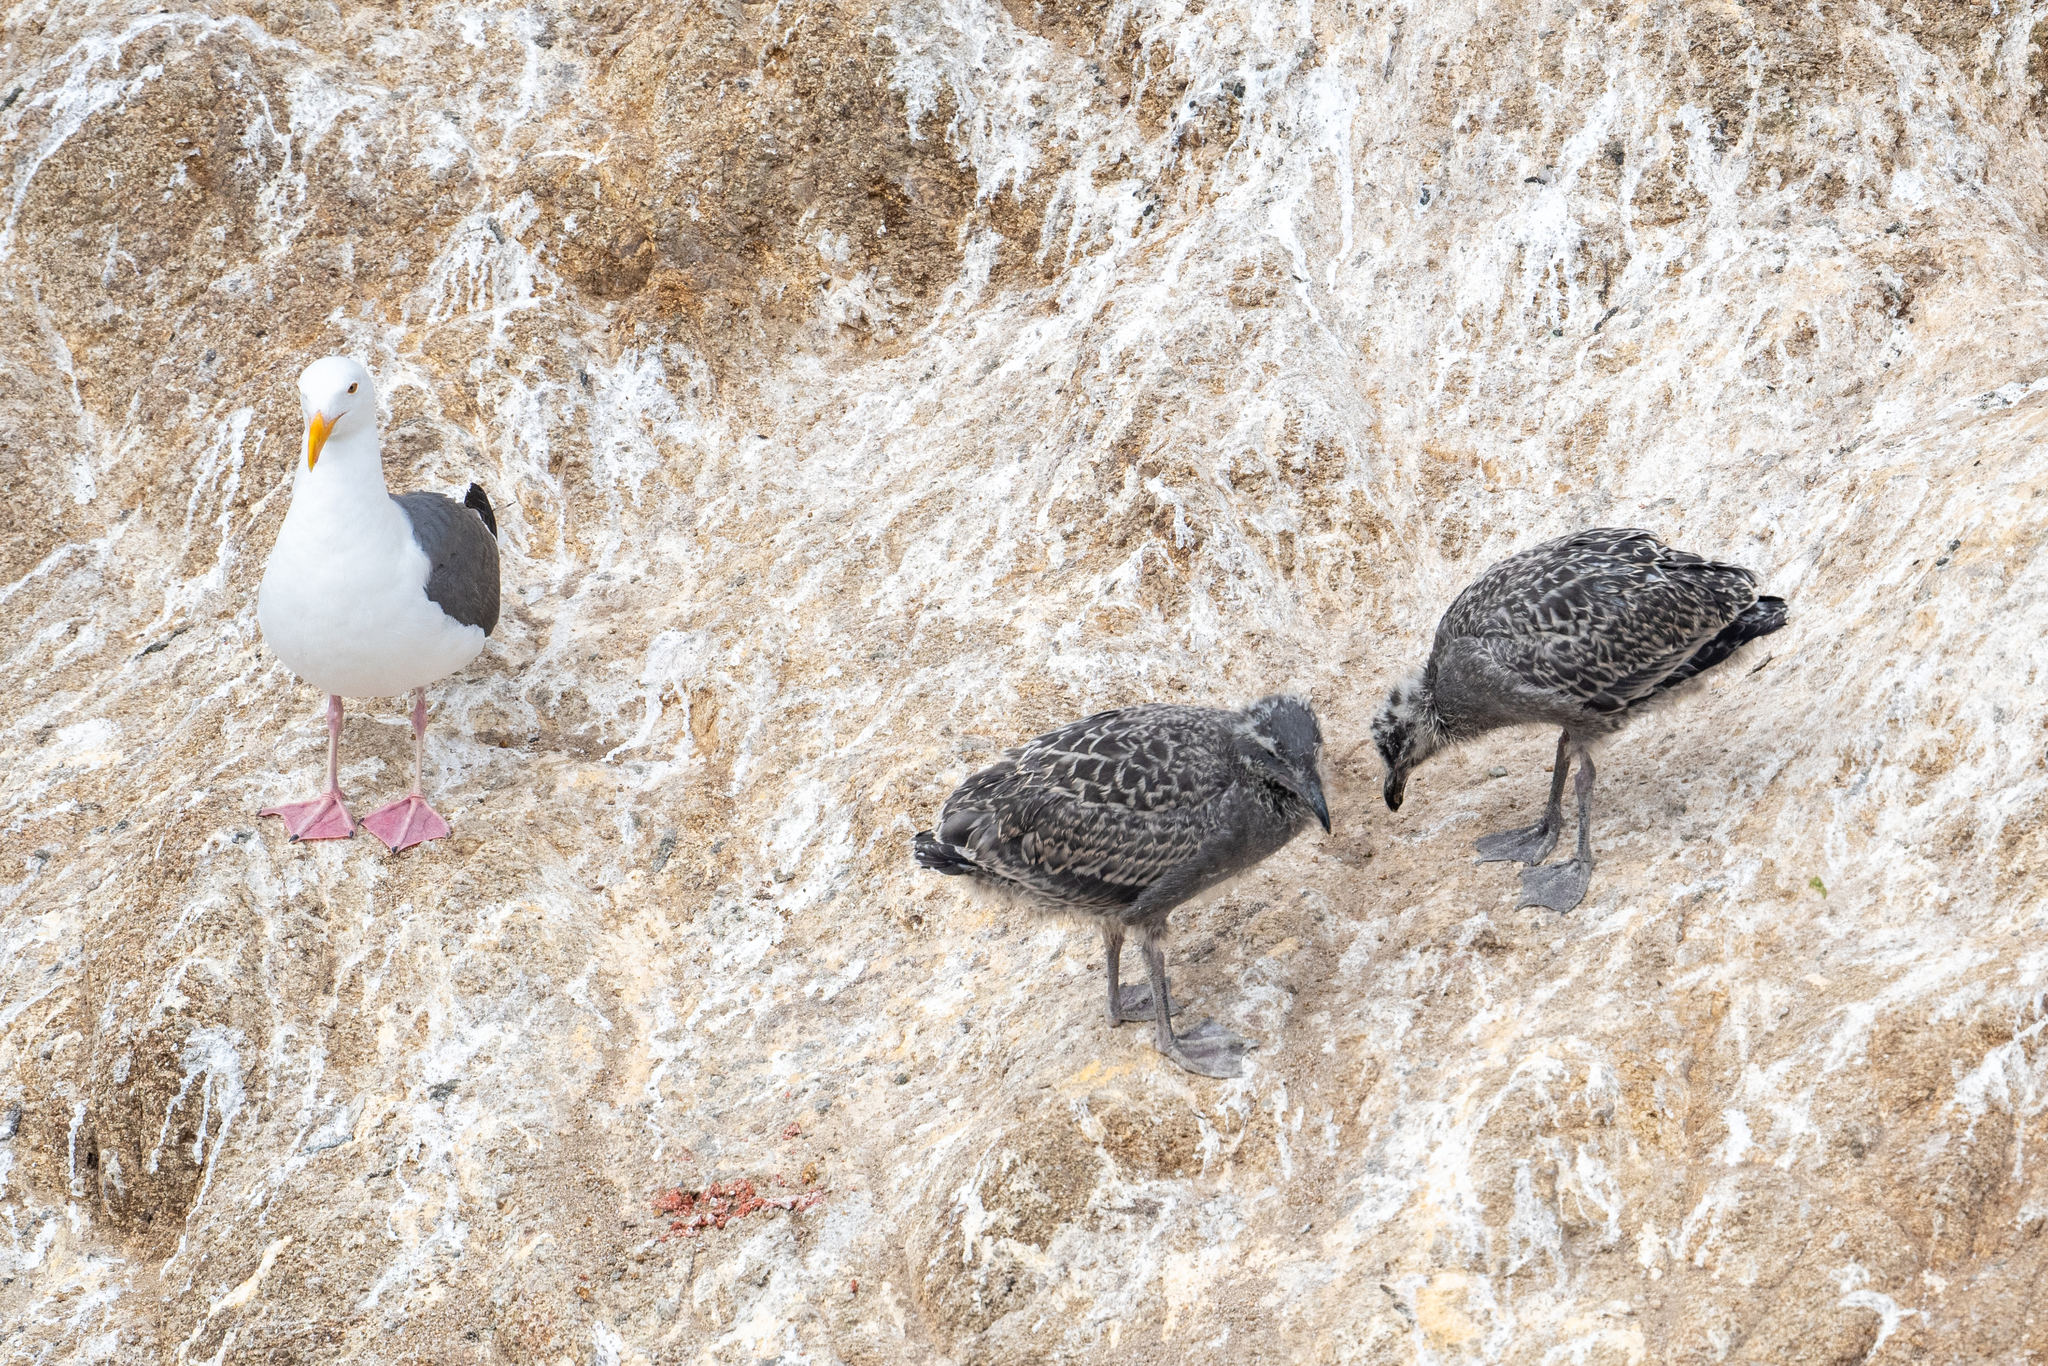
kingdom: Animalia
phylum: Chordata
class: Aves
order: Charadriiformes
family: Laridae
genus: Larus
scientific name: Larus occidentalis
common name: Western gull
